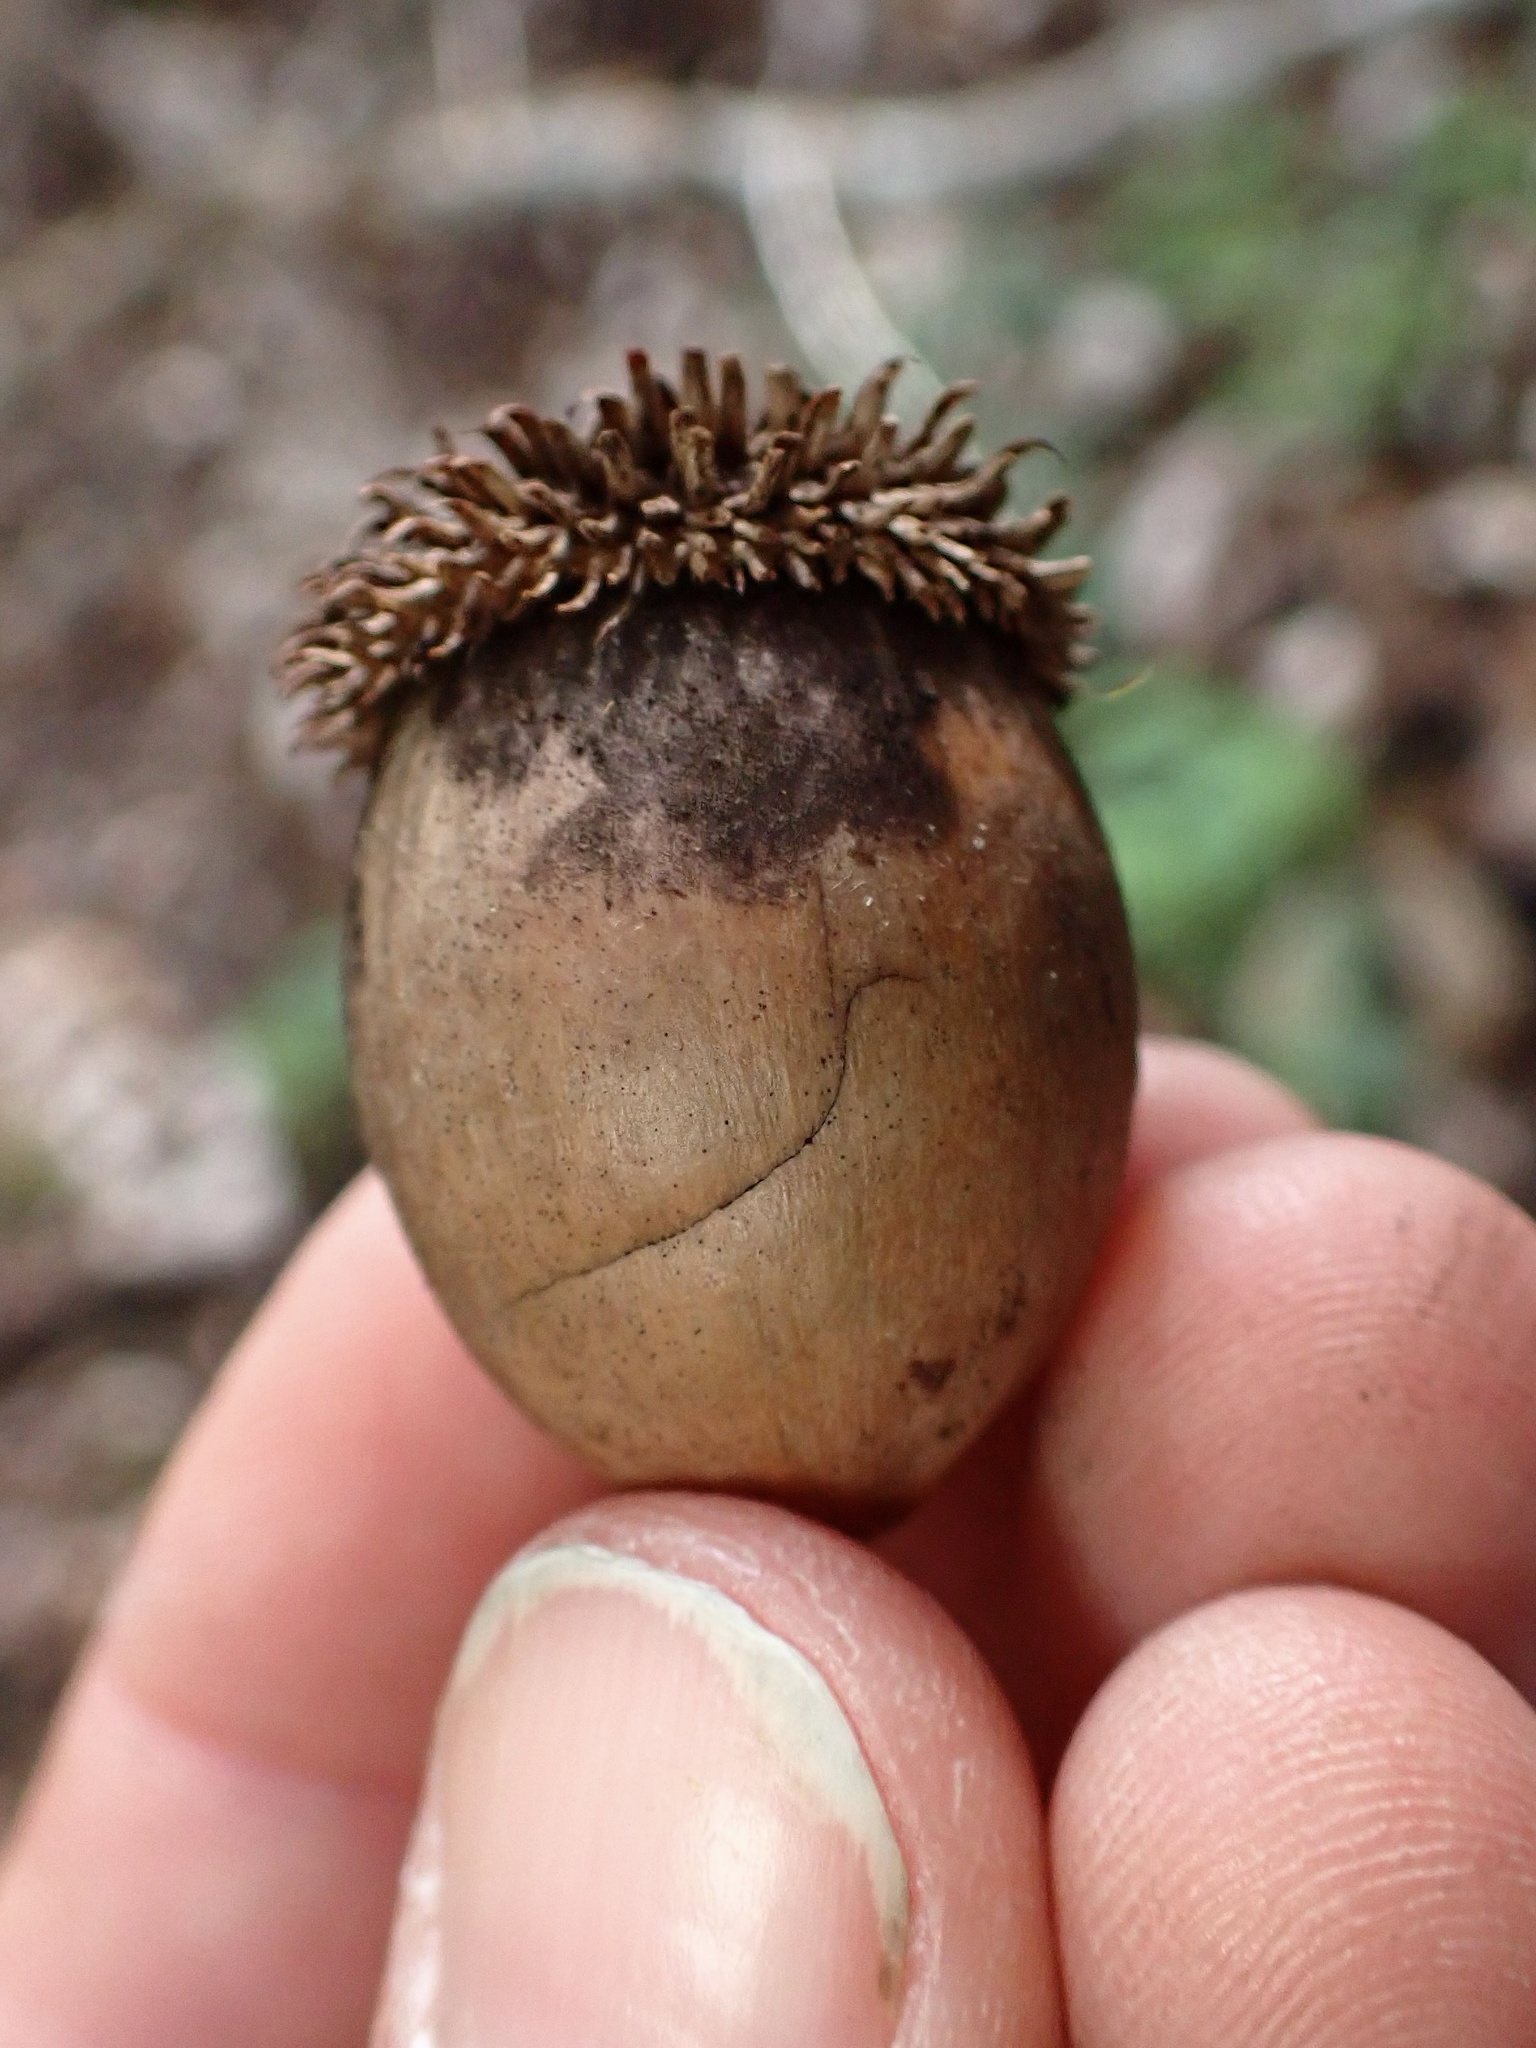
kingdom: Plantae
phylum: Tracheophyta
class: Magnoliopsida
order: Fagales
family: Fagaceae
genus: Notholithocarpus
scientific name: Notholithocarpus densiflorus
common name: Tan bark oak
